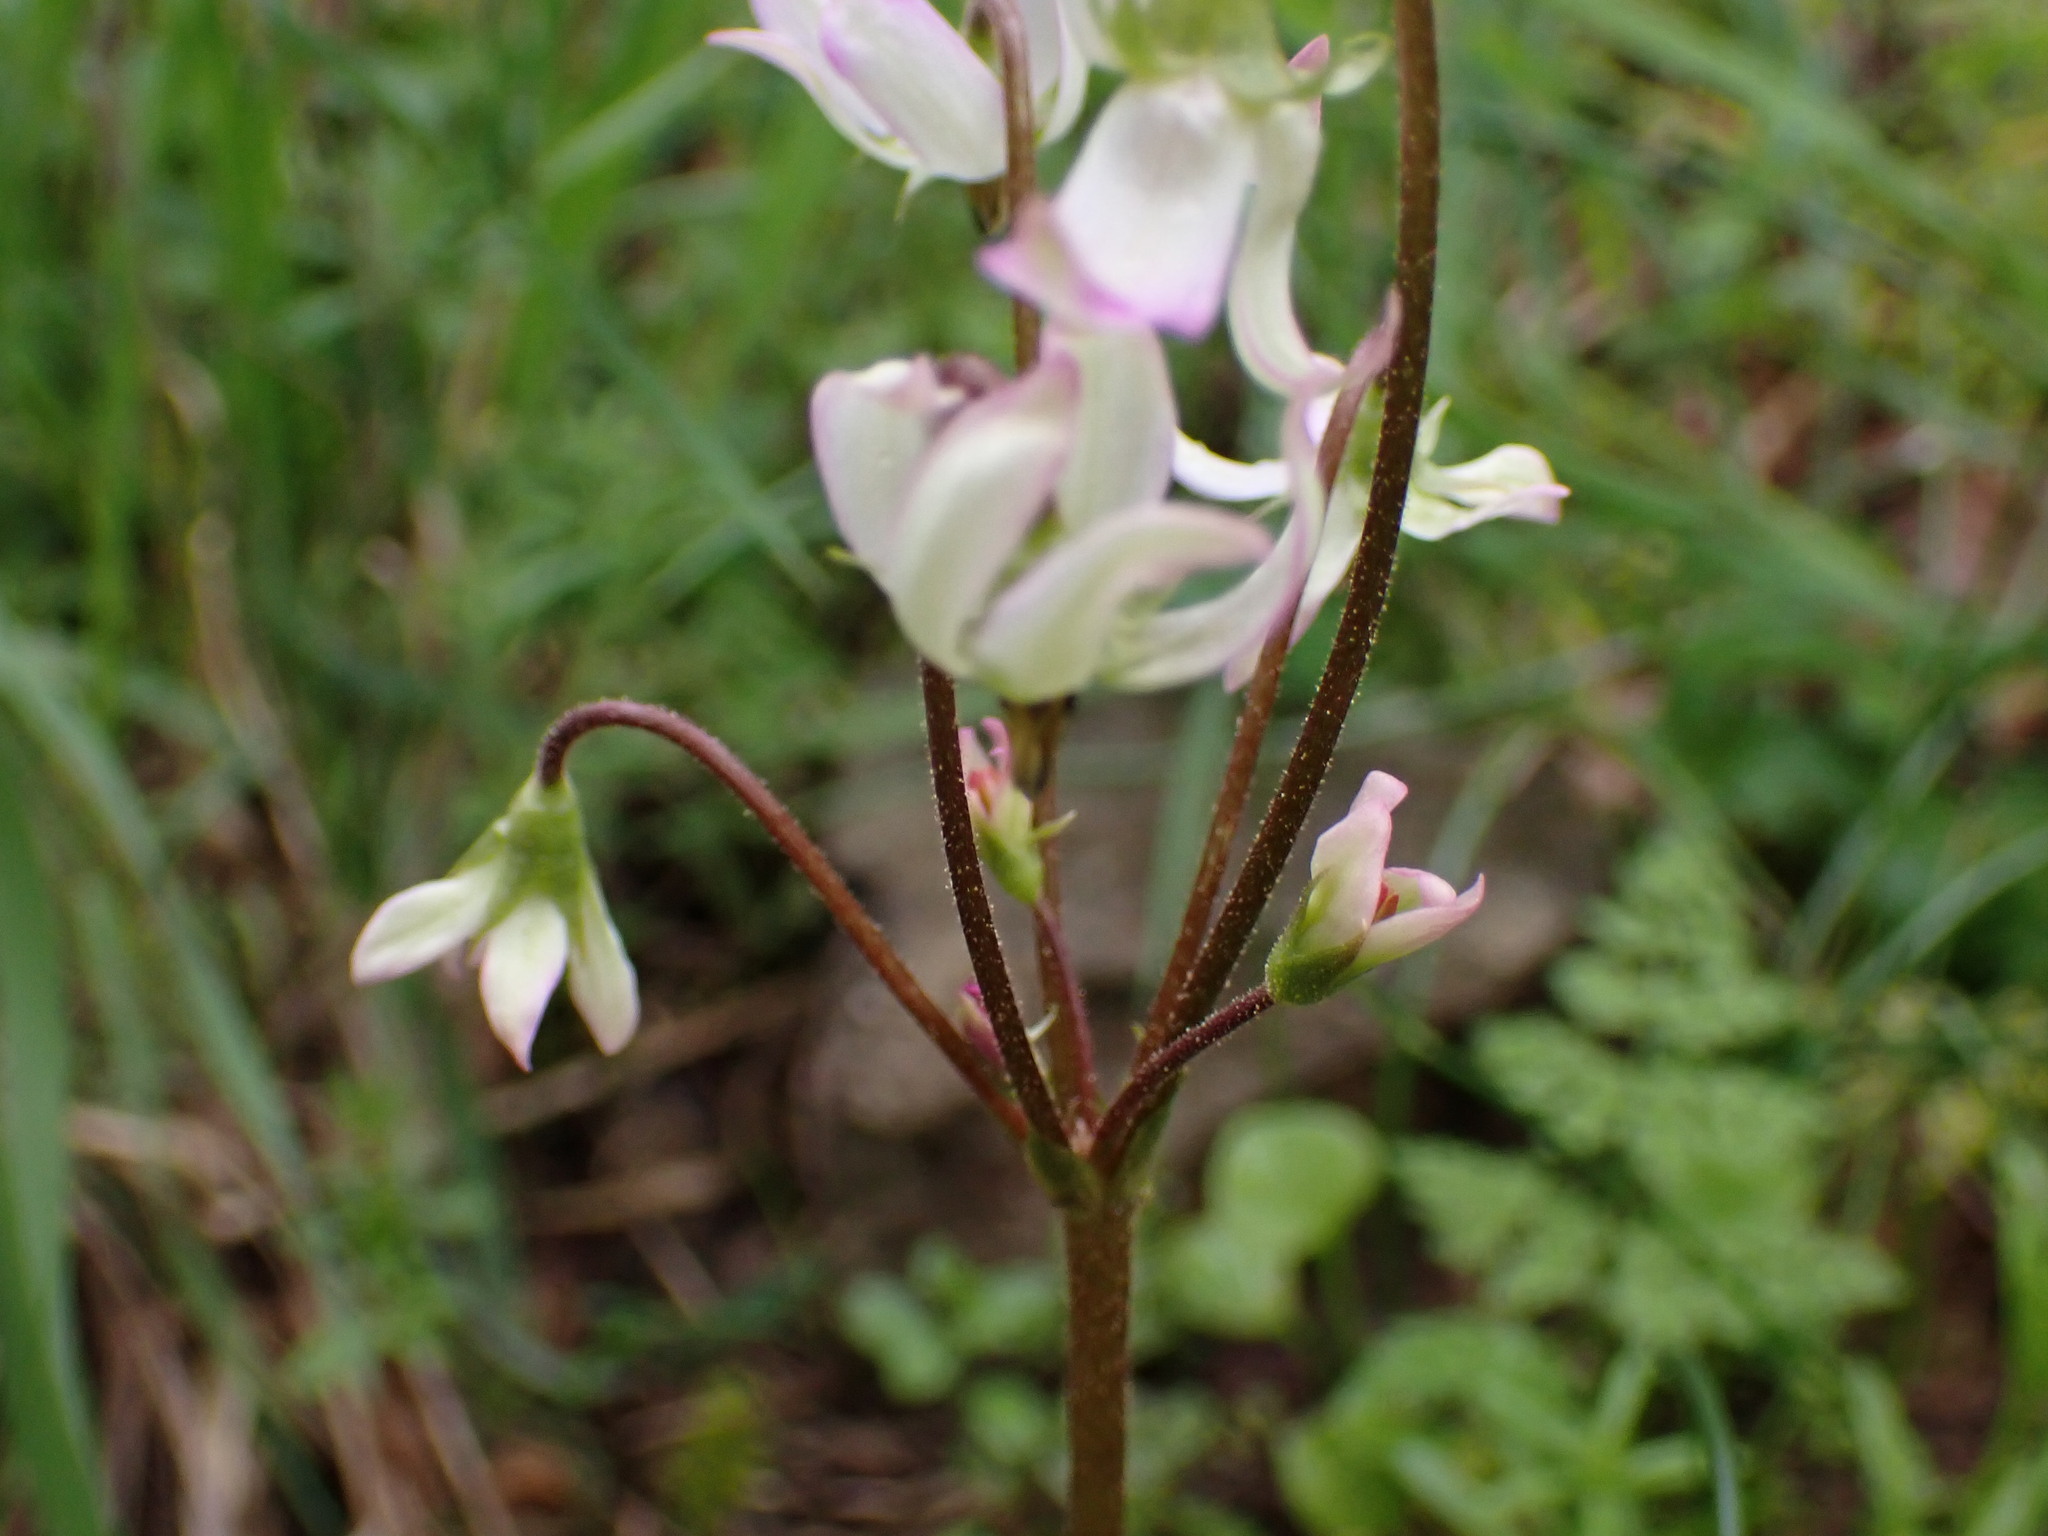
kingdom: Plantae
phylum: Tracheophyta
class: Magnoliopsida
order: Ericales
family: Primulaceae
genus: Dodecatheon
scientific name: Dodecatheon hendersonii
